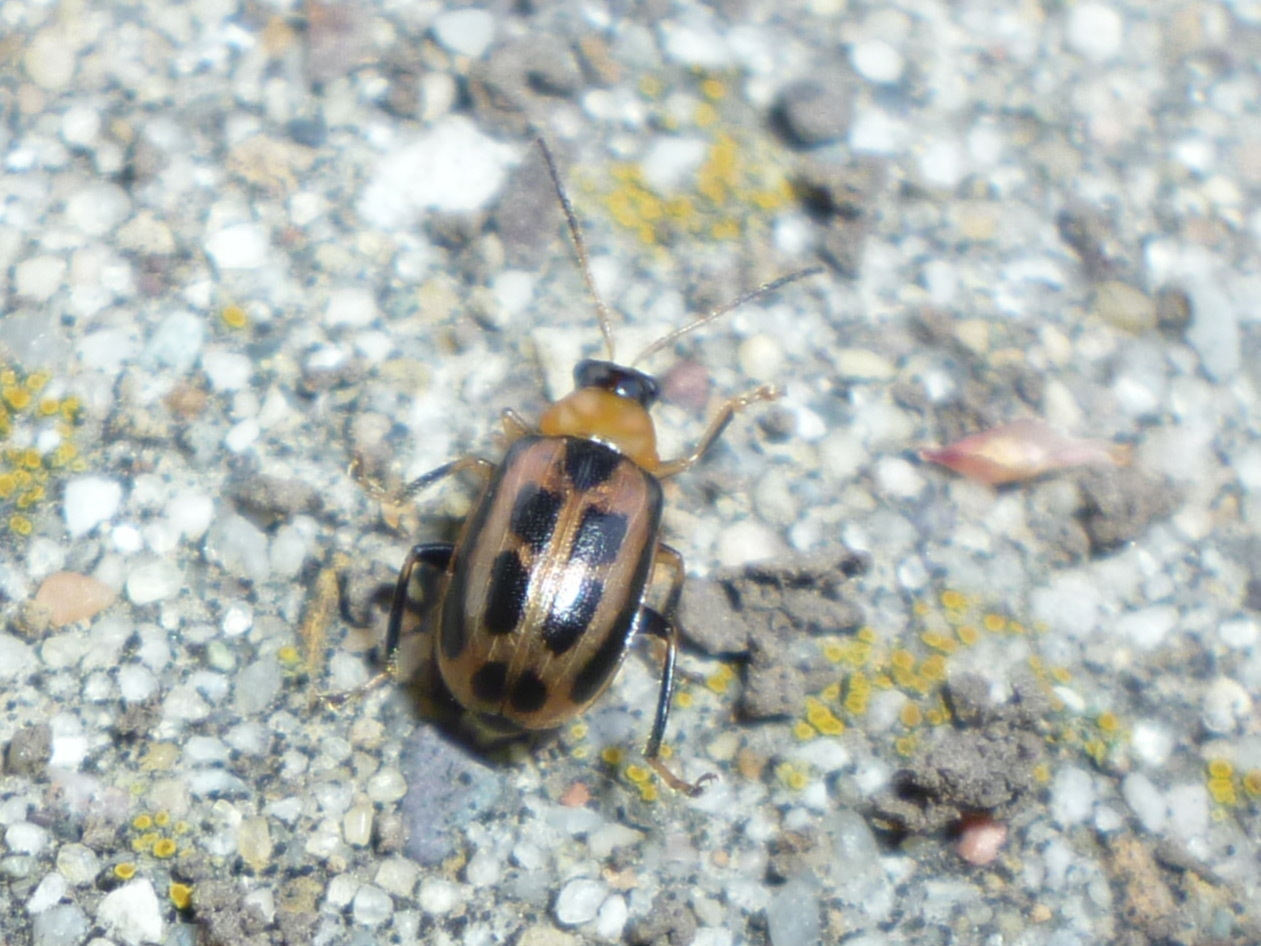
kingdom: Animalia
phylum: Arthropoda
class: Insecta
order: Coleoptera
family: Chrysomelidae
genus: Cerotoma
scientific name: Cerotoma trifurcata
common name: Bean leaf beetle
